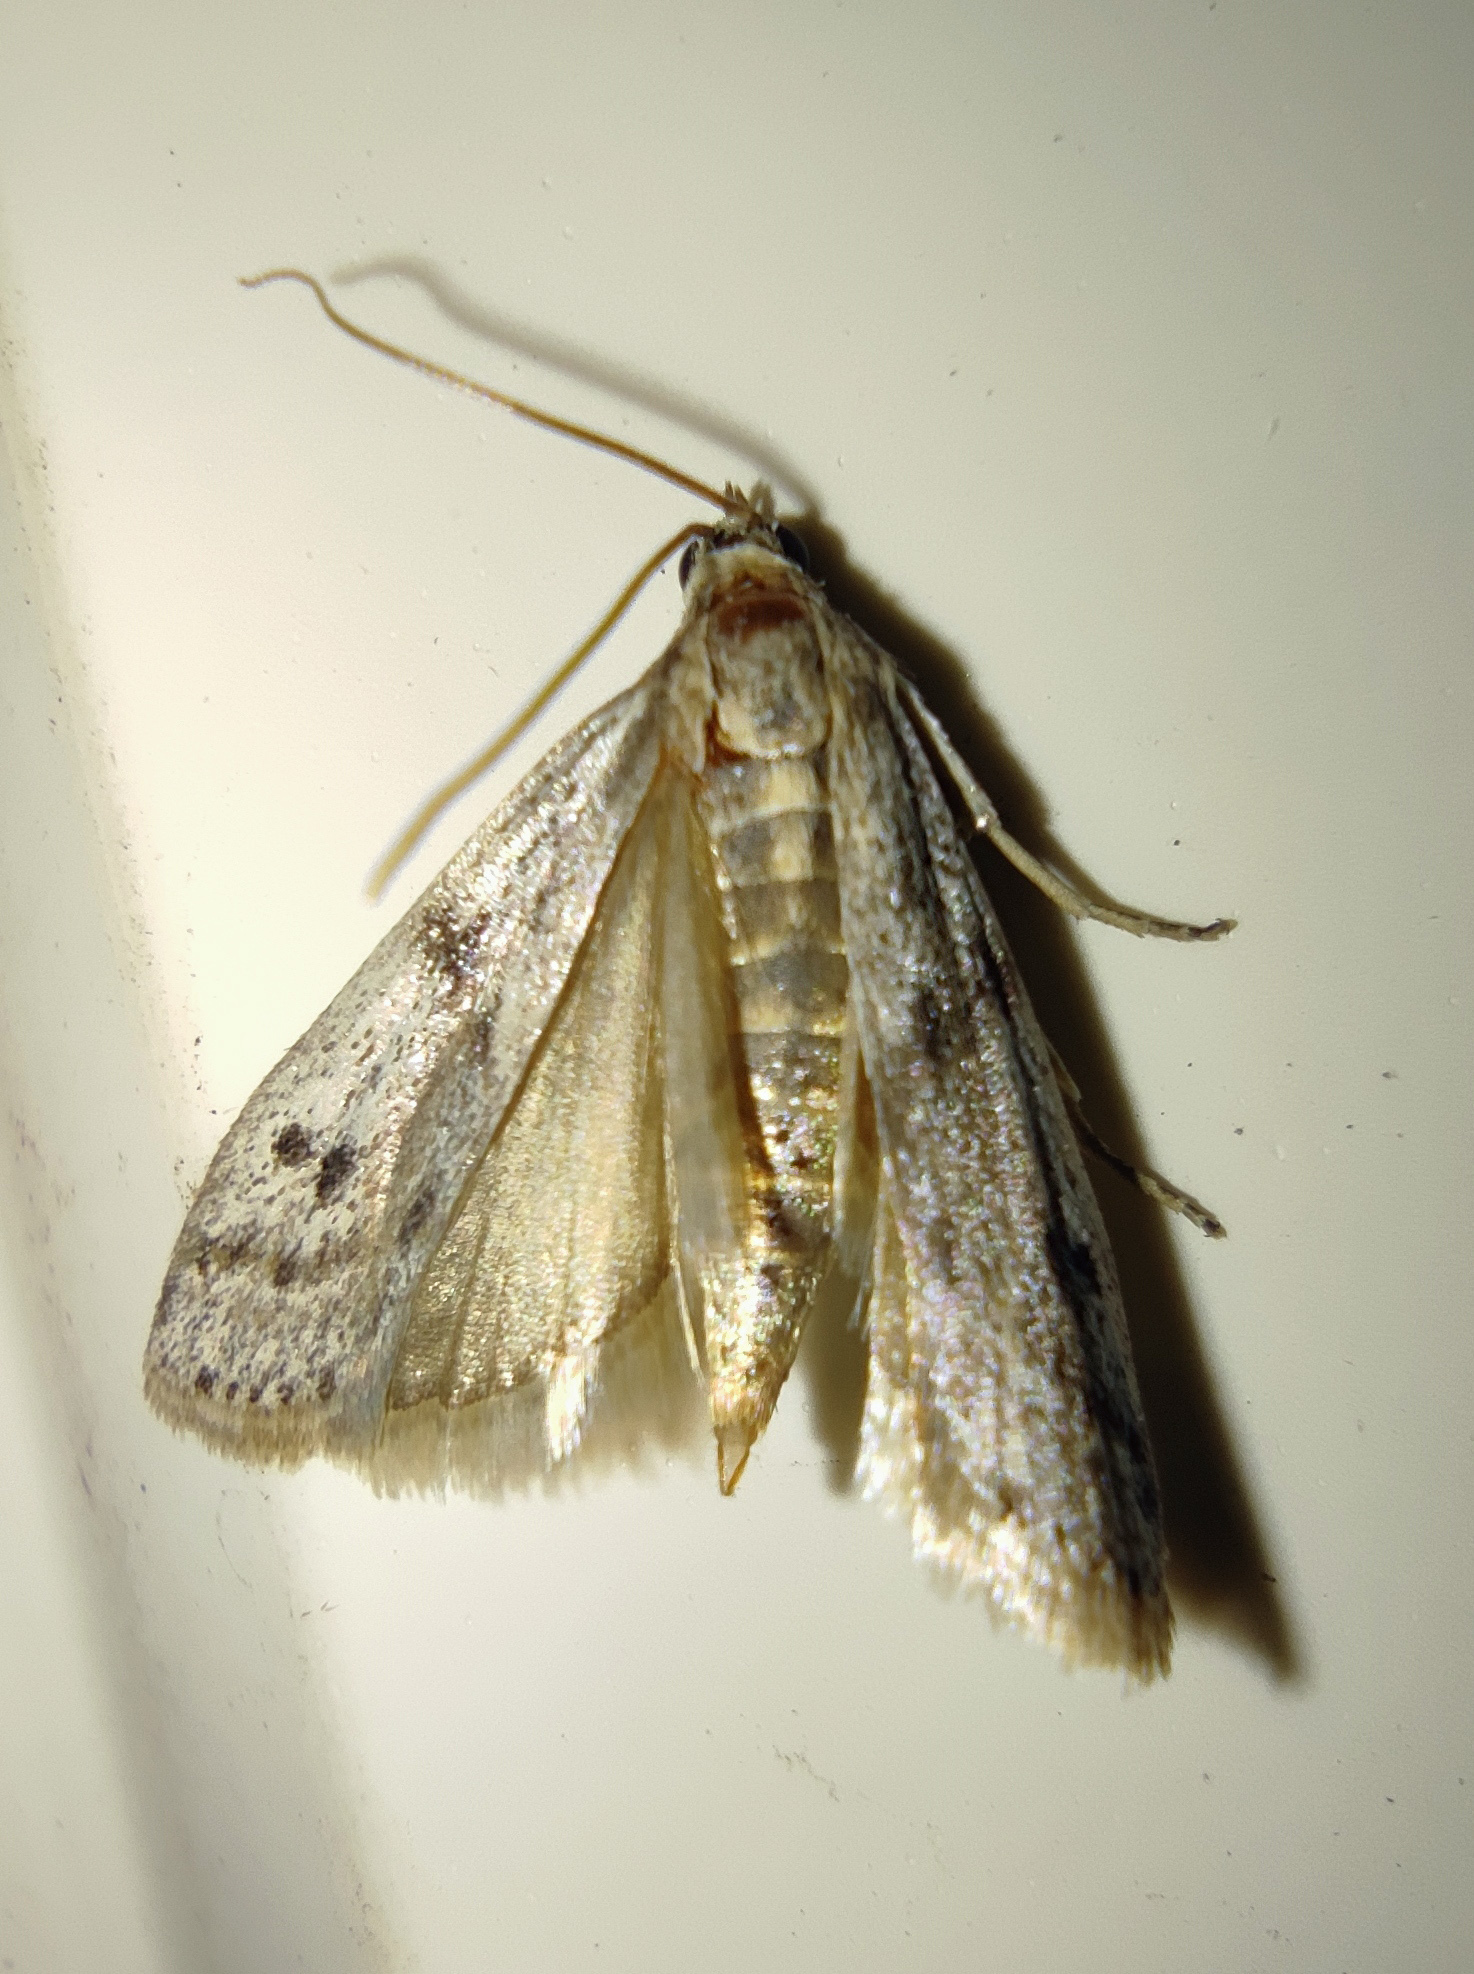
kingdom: Animalia
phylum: Arthropoda
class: Insecta
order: Lepidoptera
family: Pyralidae
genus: Phycitodes
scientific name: Phycitodes binaevella
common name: Ermine knot-horn
